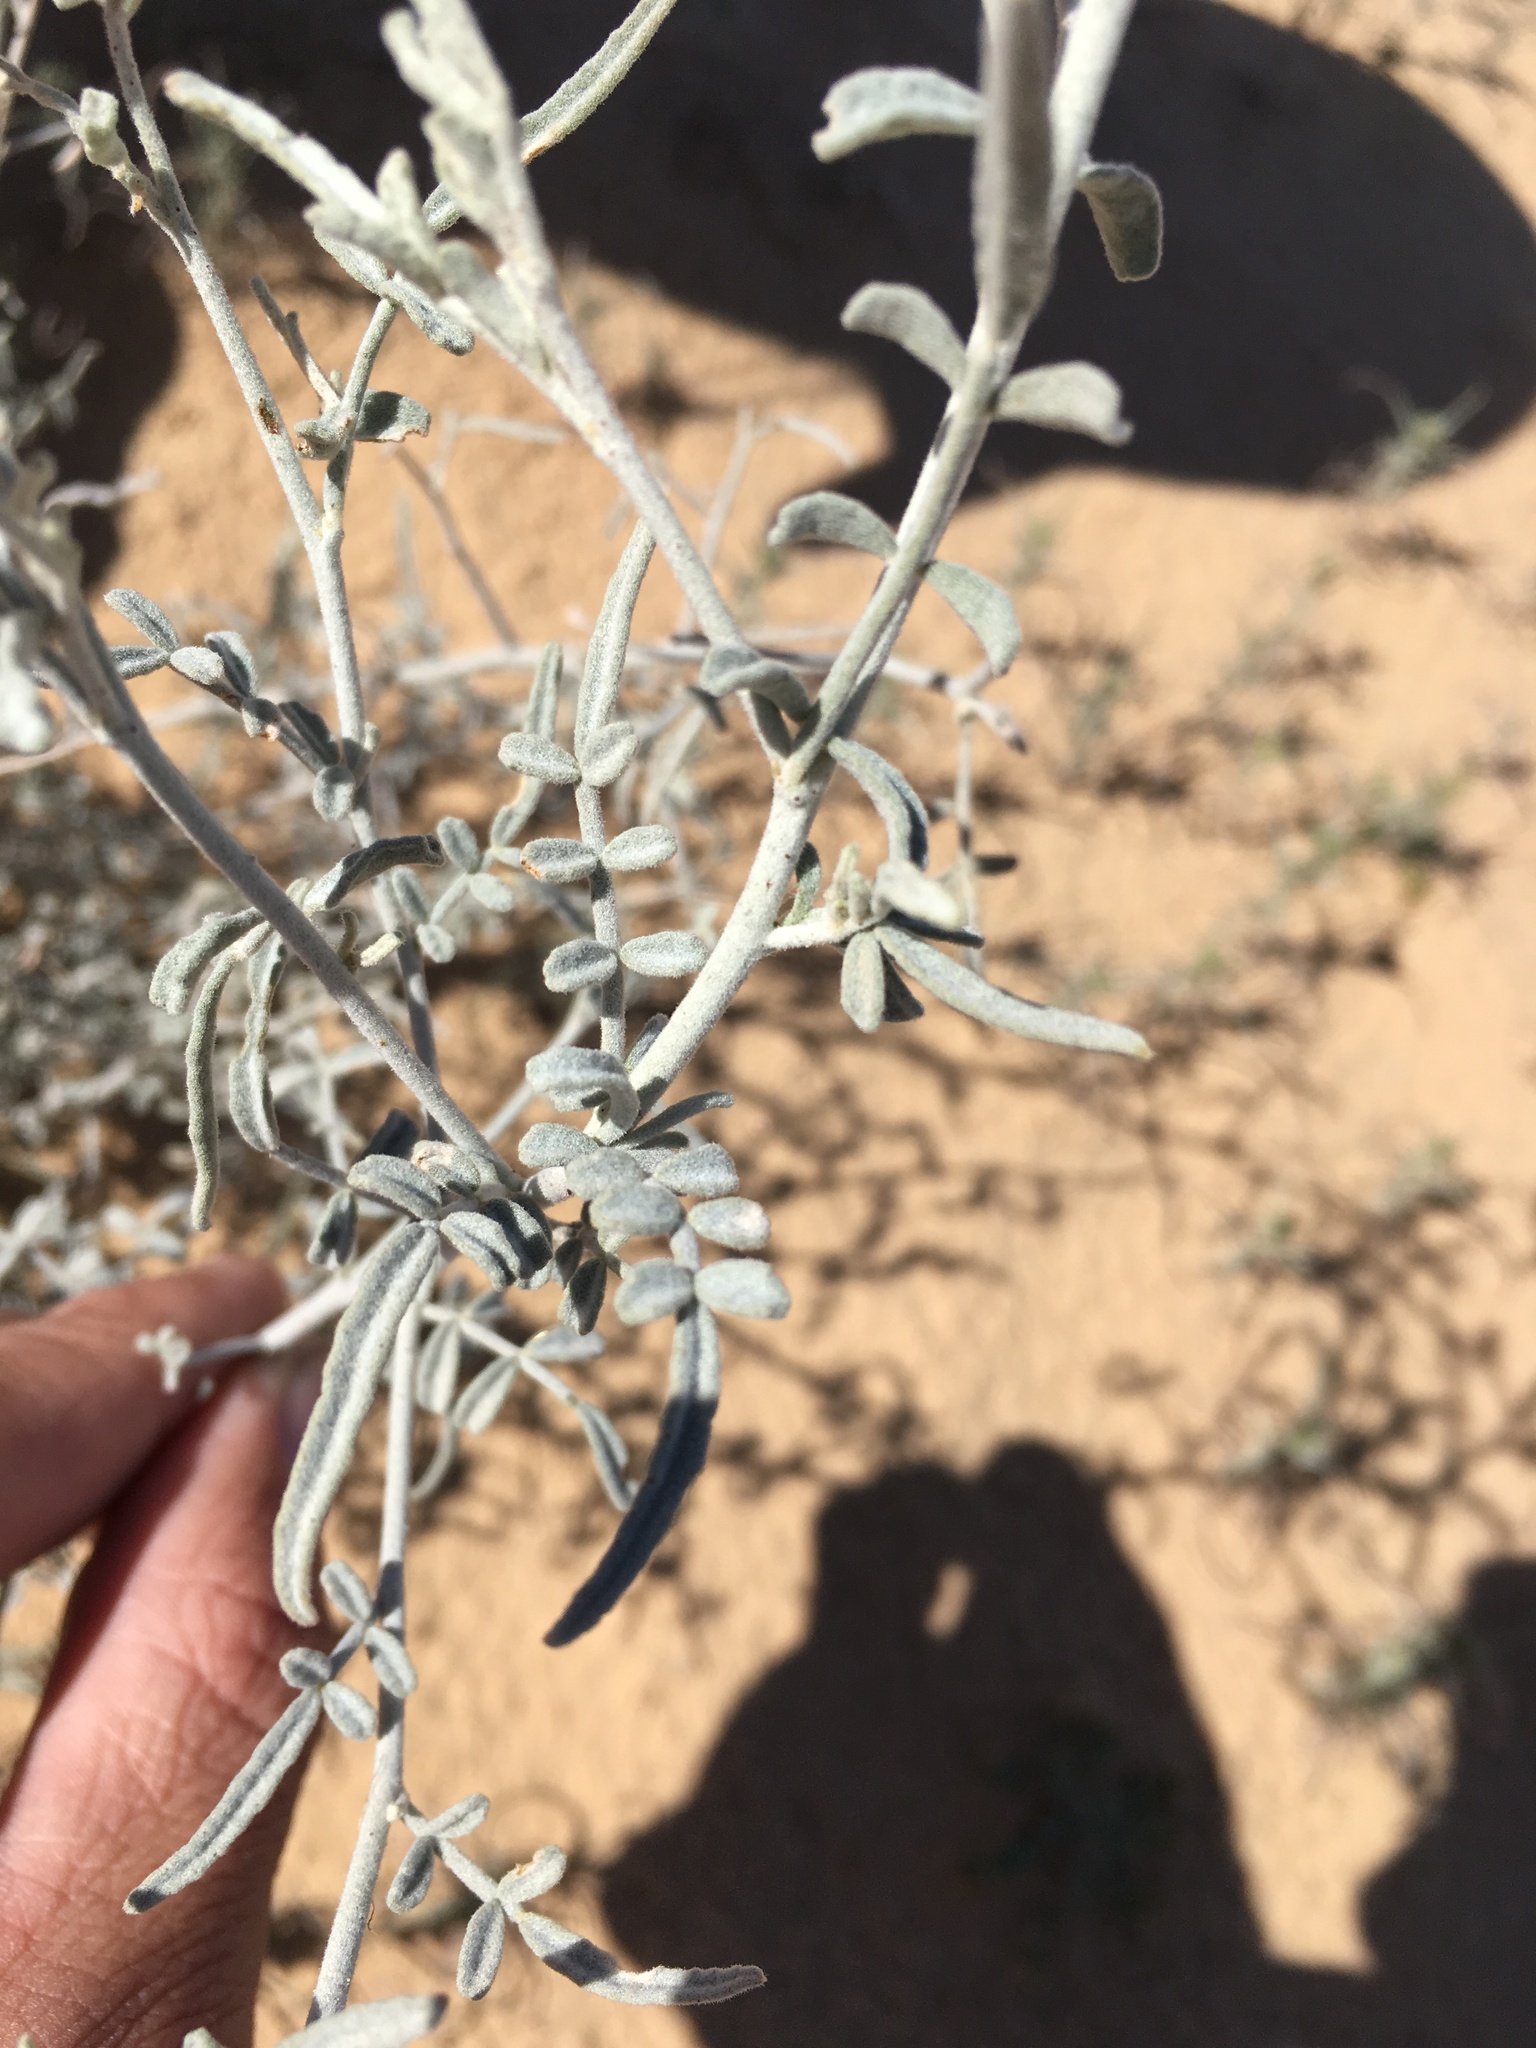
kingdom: Plantae
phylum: Tracheophyta
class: Magnoliopsida
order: Fabales
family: Fabaceae
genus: Psorothamnus
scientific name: Psorothamnus emoryi
